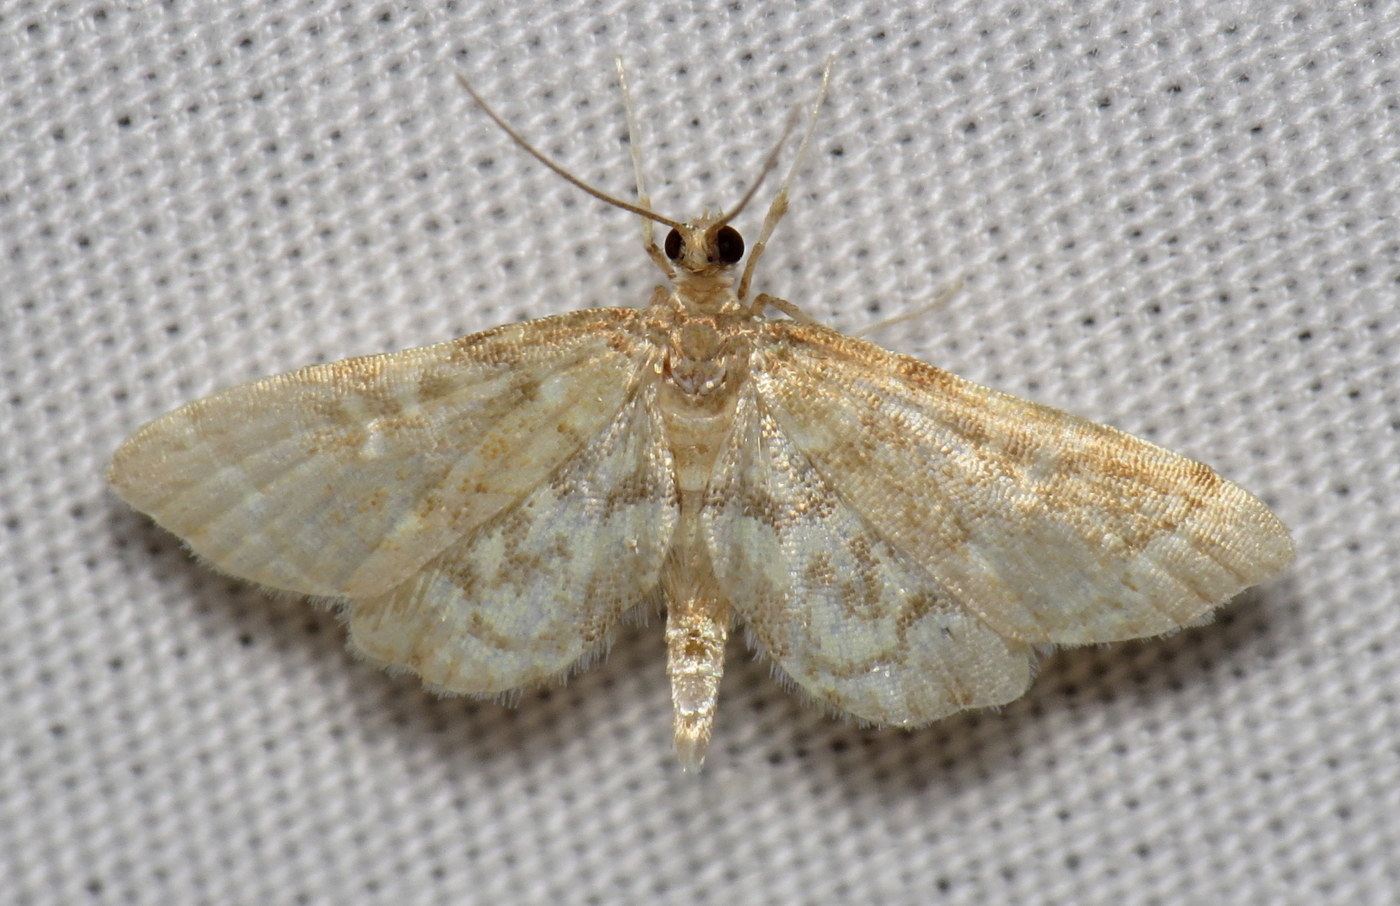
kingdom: Animalia
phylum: Arthropoda
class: Insecta
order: Lepidoptera
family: Crambidae
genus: Anageshna
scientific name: Anageshna primordialis
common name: Yellow-spotted webworm moth
